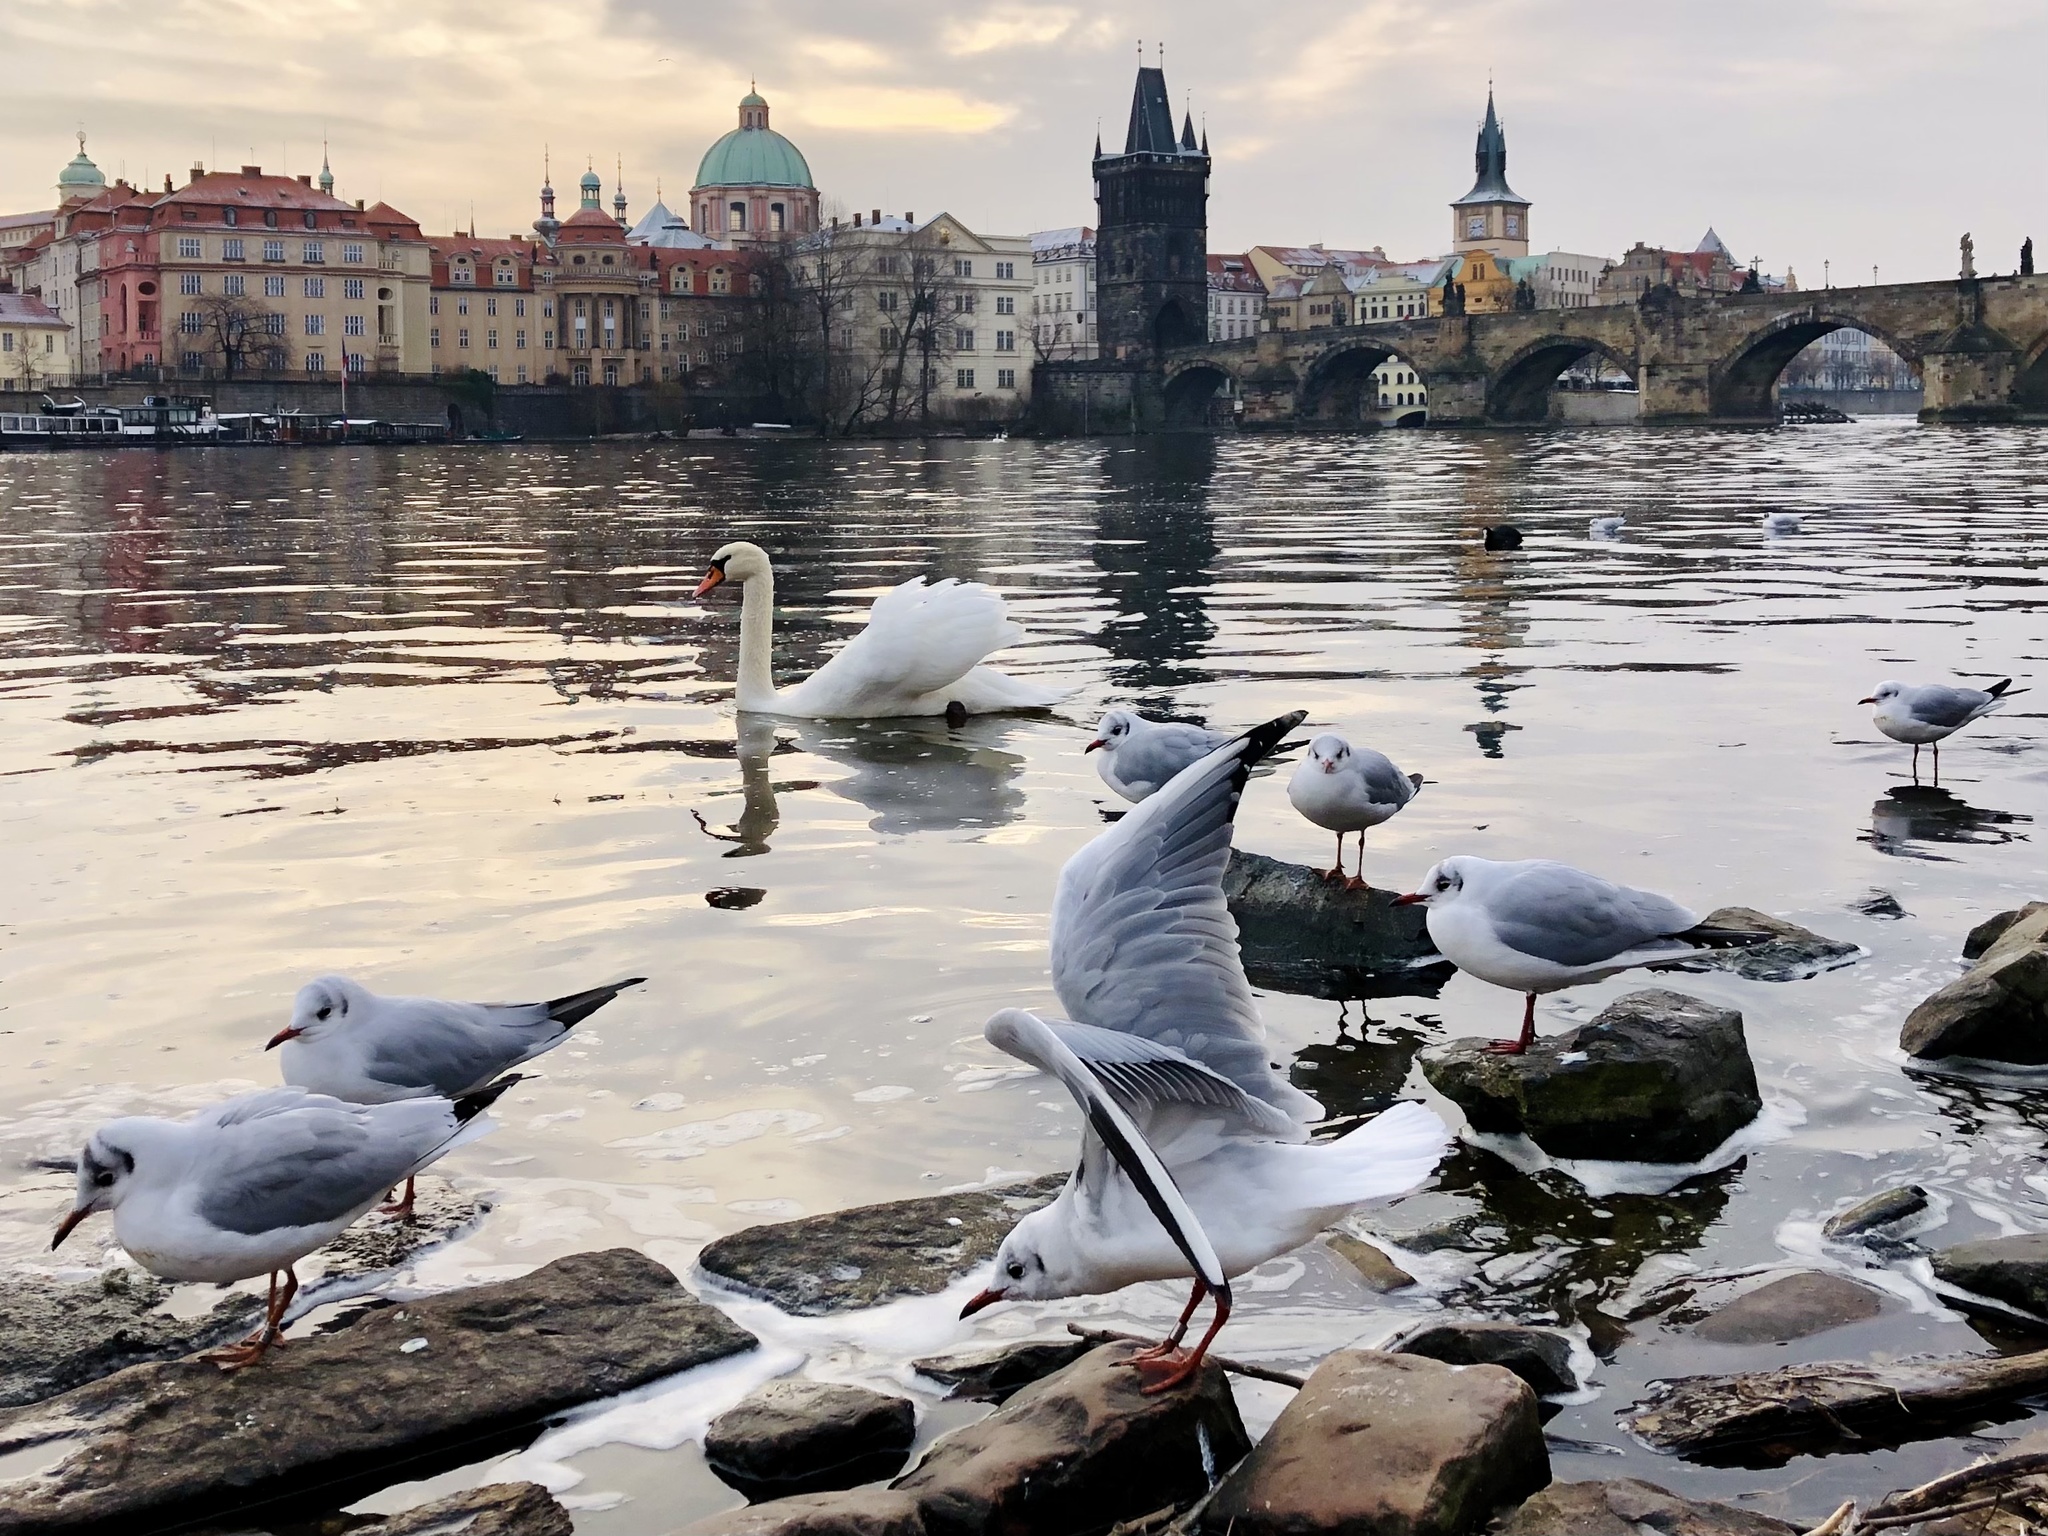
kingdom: Animalia
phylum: Chordata
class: Aves
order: Charadriiformes
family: Laridae
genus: Chroicocephalus
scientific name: Chroicocephalus ridibundus
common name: Black-headed gull
